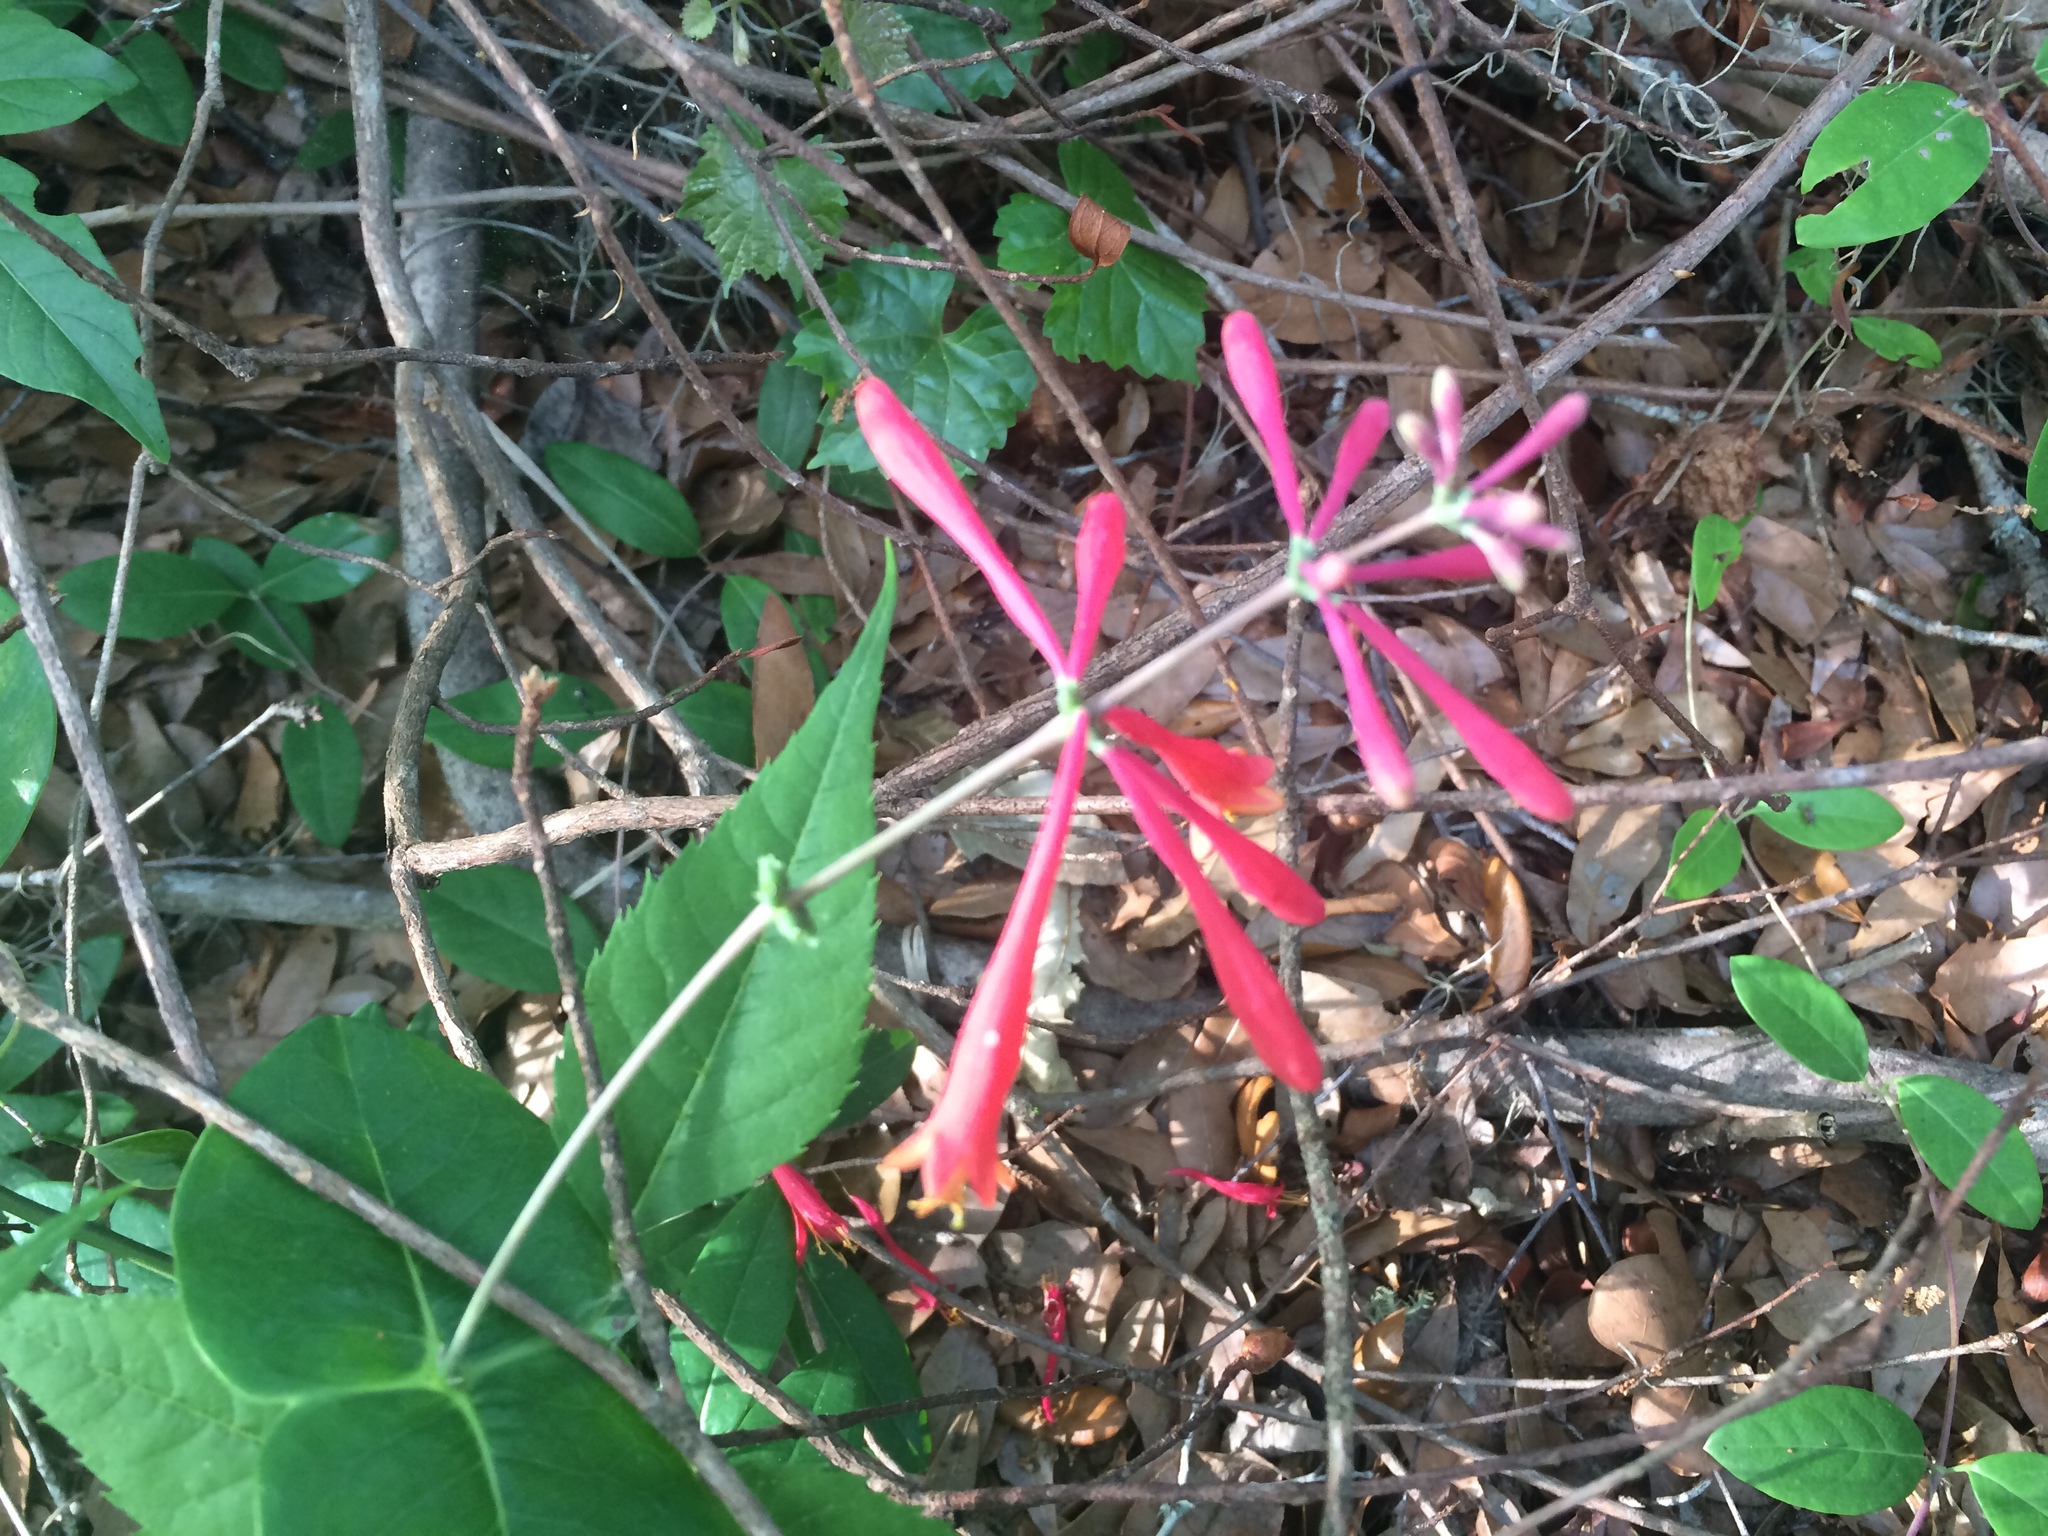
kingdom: Plantae
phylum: Tracheophyta
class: Magnoliopsida
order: Dipsacales
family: Caprifoliaceae
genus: Lonicera
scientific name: Lonicera sempervirens
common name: Coral honeysuckle
